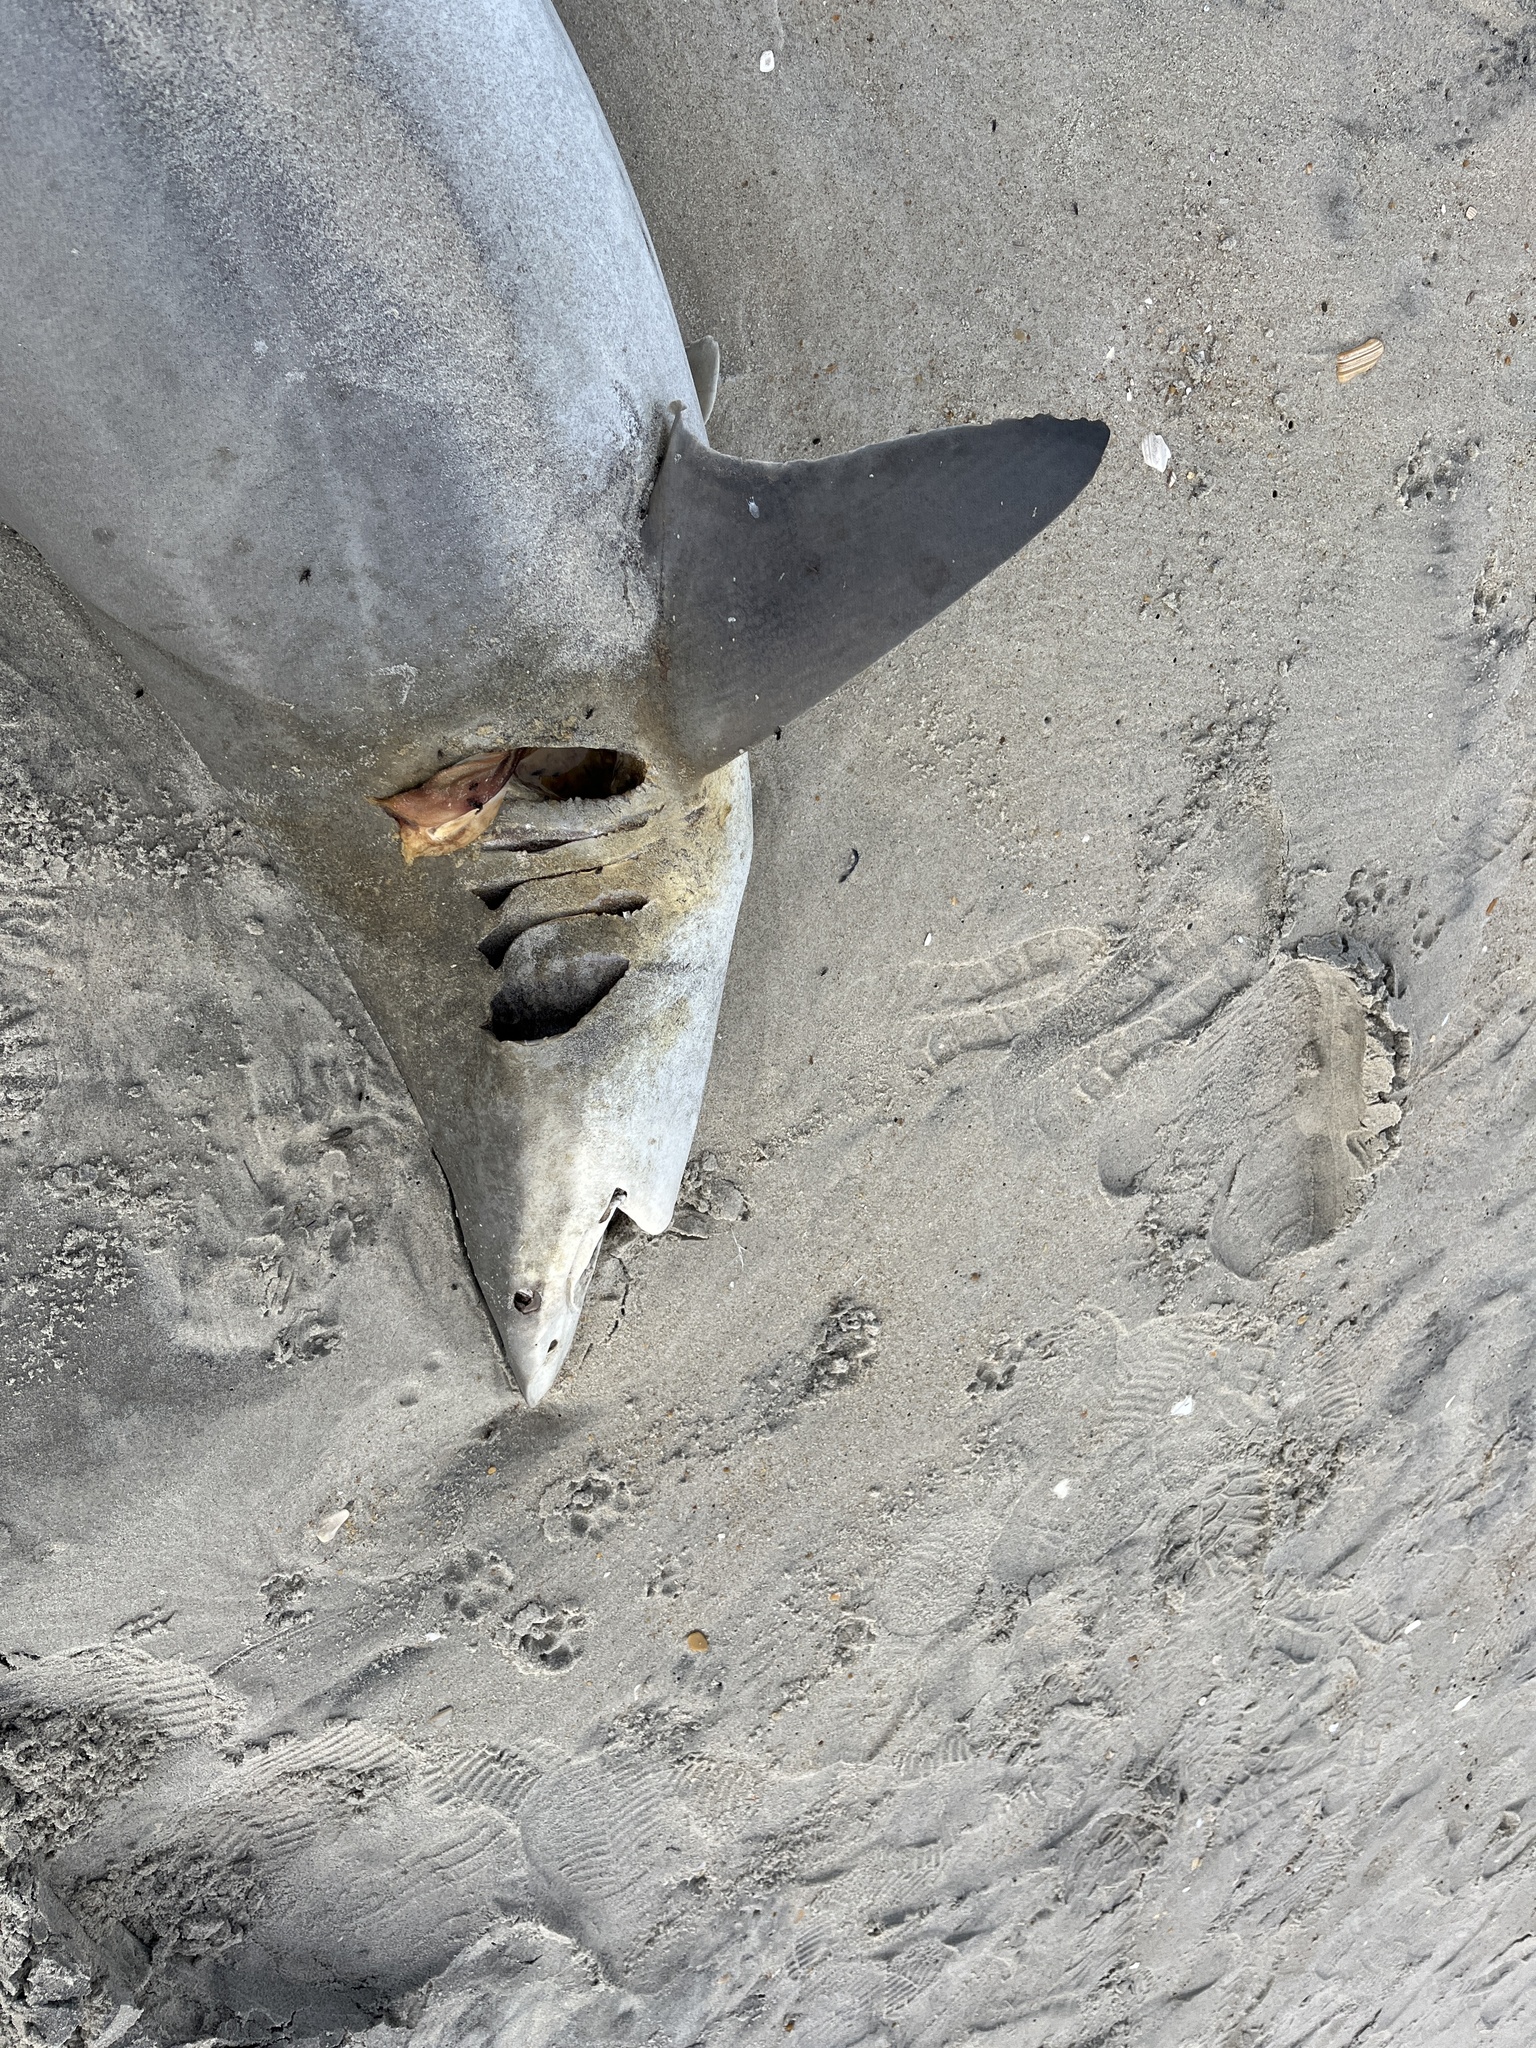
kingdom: Animalia
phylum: Chordata
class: Elasmobranchii
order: Carcharhiniformes
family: Carcharhinidae
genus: Carcharhinus
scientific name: Carcharhinus brevipinna
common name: Spinner shark
